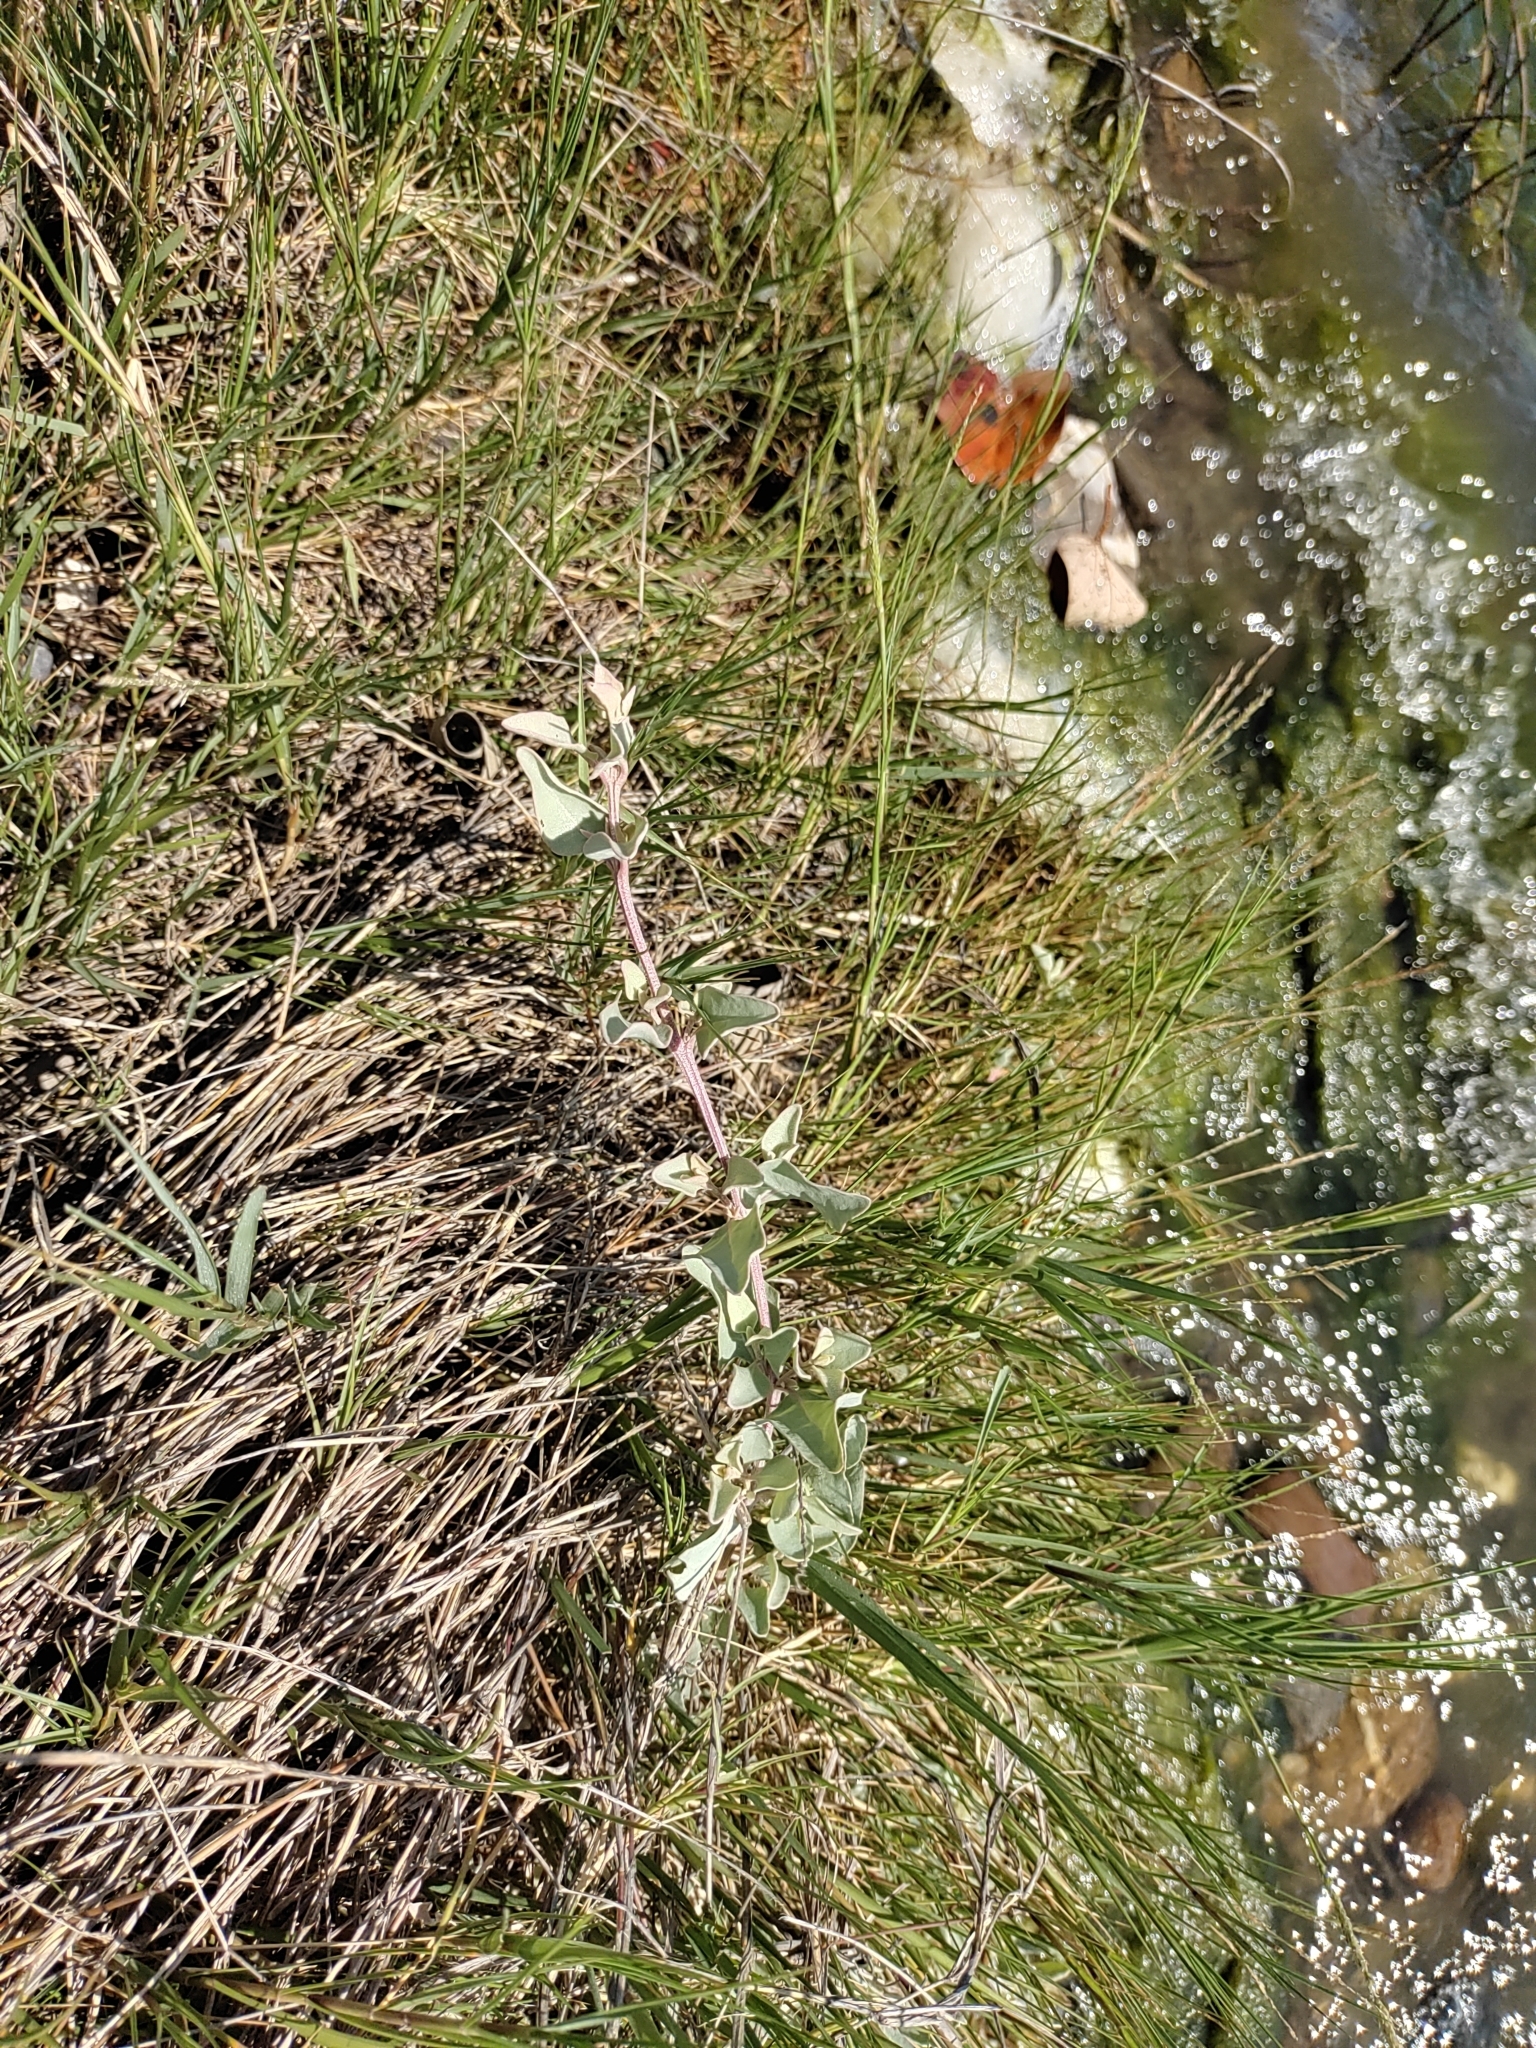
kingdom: Plantae
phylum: Tracheophyta
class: Magnoliopsida
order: Caryophyllales
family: Amaranthaceae
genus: Atriplex
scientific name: Atriplex maximowicziana
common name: Maximowicz's saltbush
